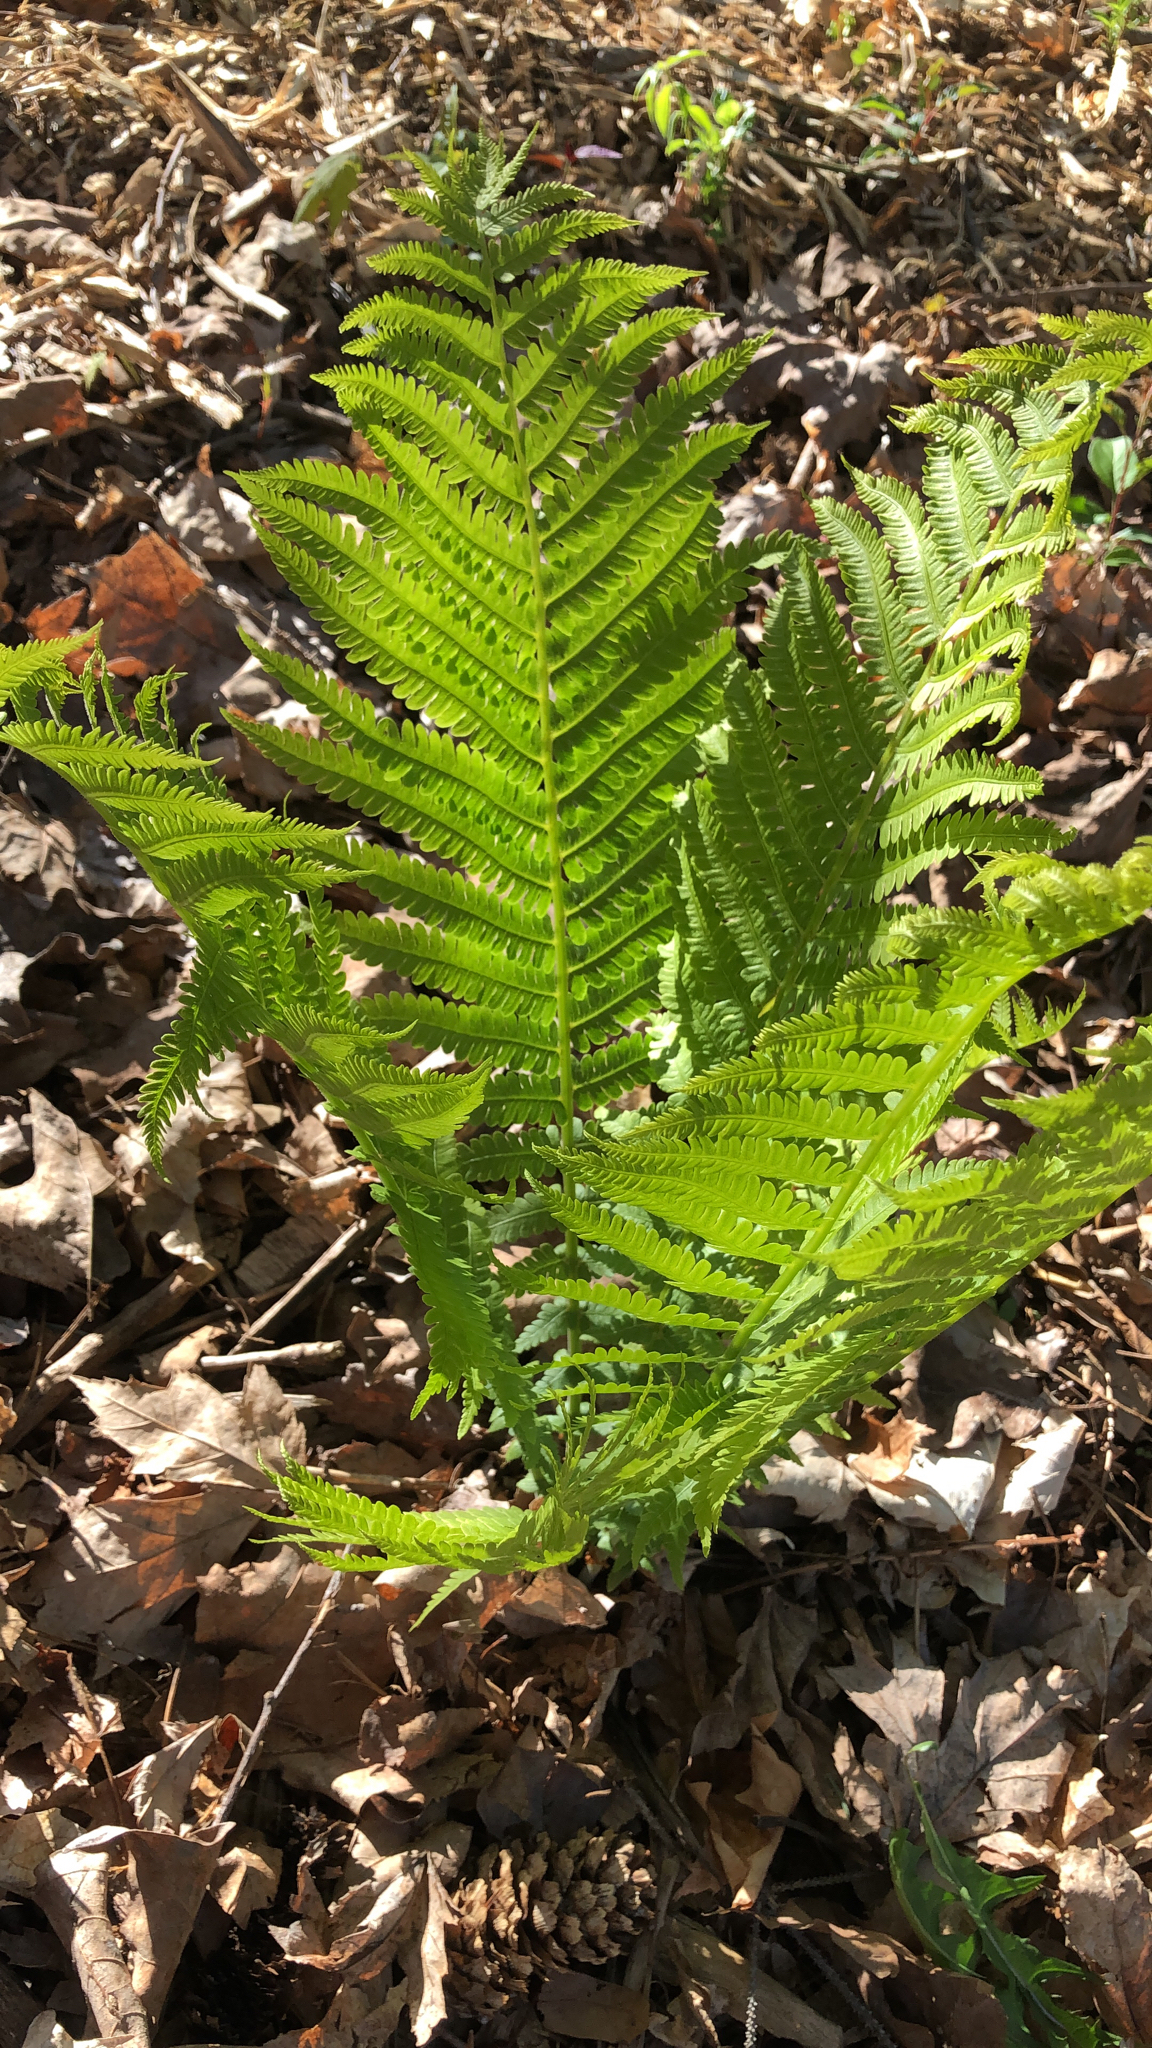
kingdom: Plantae
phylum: Tracheophyta
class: Polypodiopsida
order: Polypodiales
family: Onocleaceae
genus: Matteuccia
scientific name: Matteuccia struthiopteris
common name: Ostrich fern
